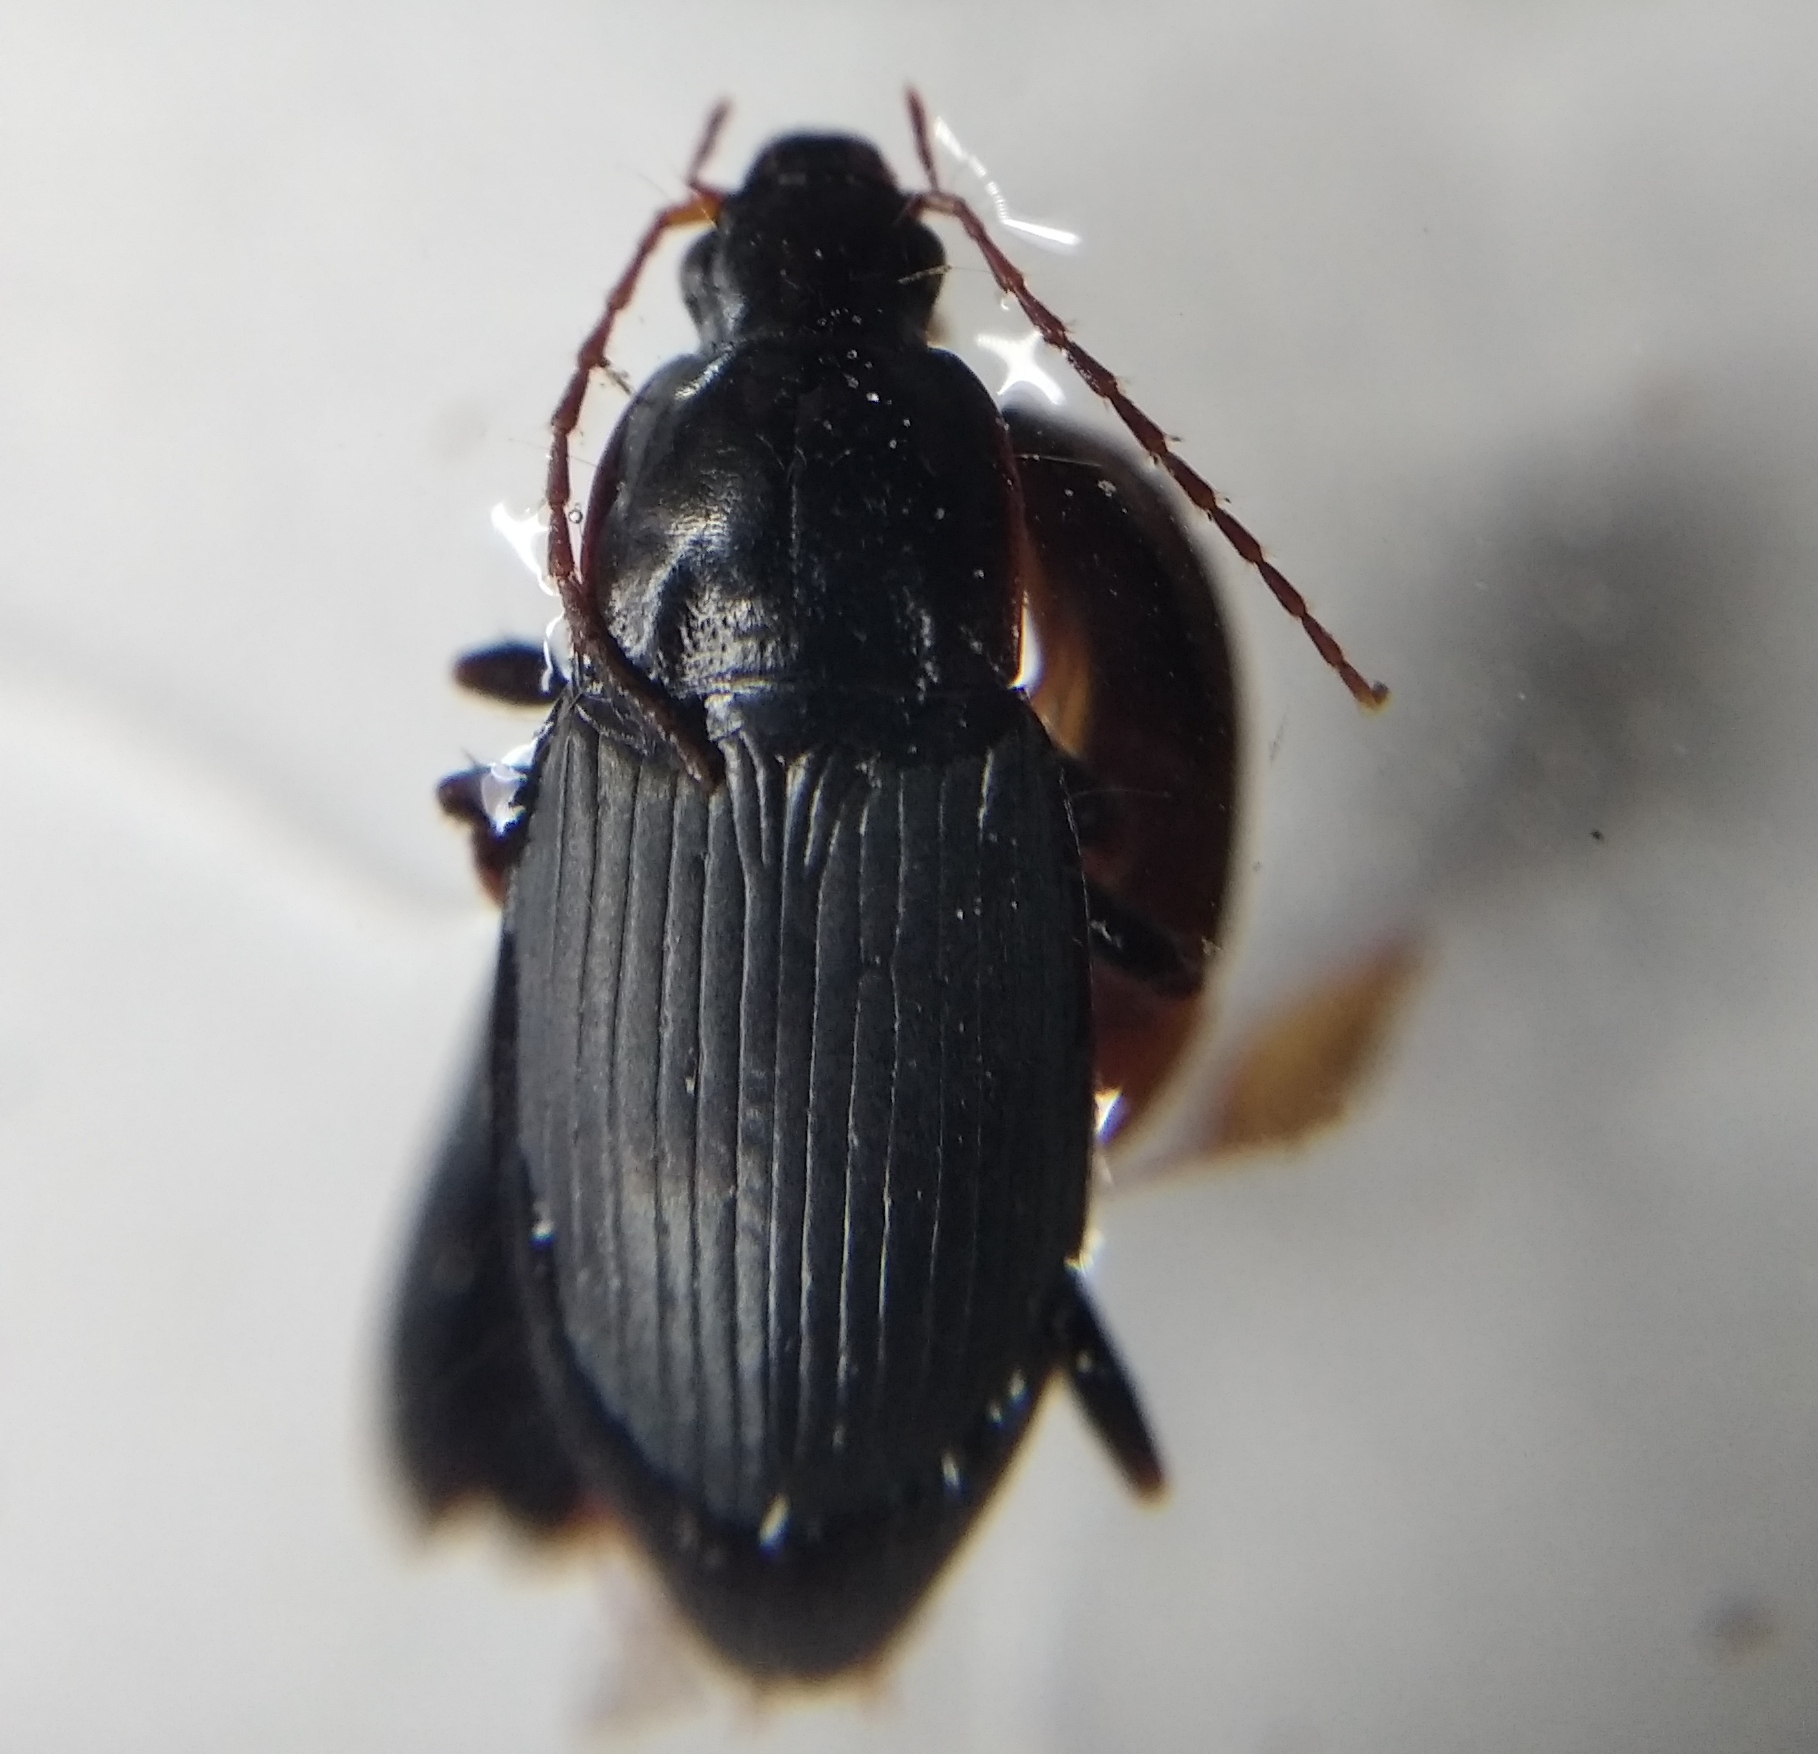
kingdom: Animalia
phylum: Arthropoda
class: Insecta
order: Coleoptera
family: Carabidae
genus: Calathus
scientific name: Calathus fuscipes
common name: Dark-footed harp ground beetle
